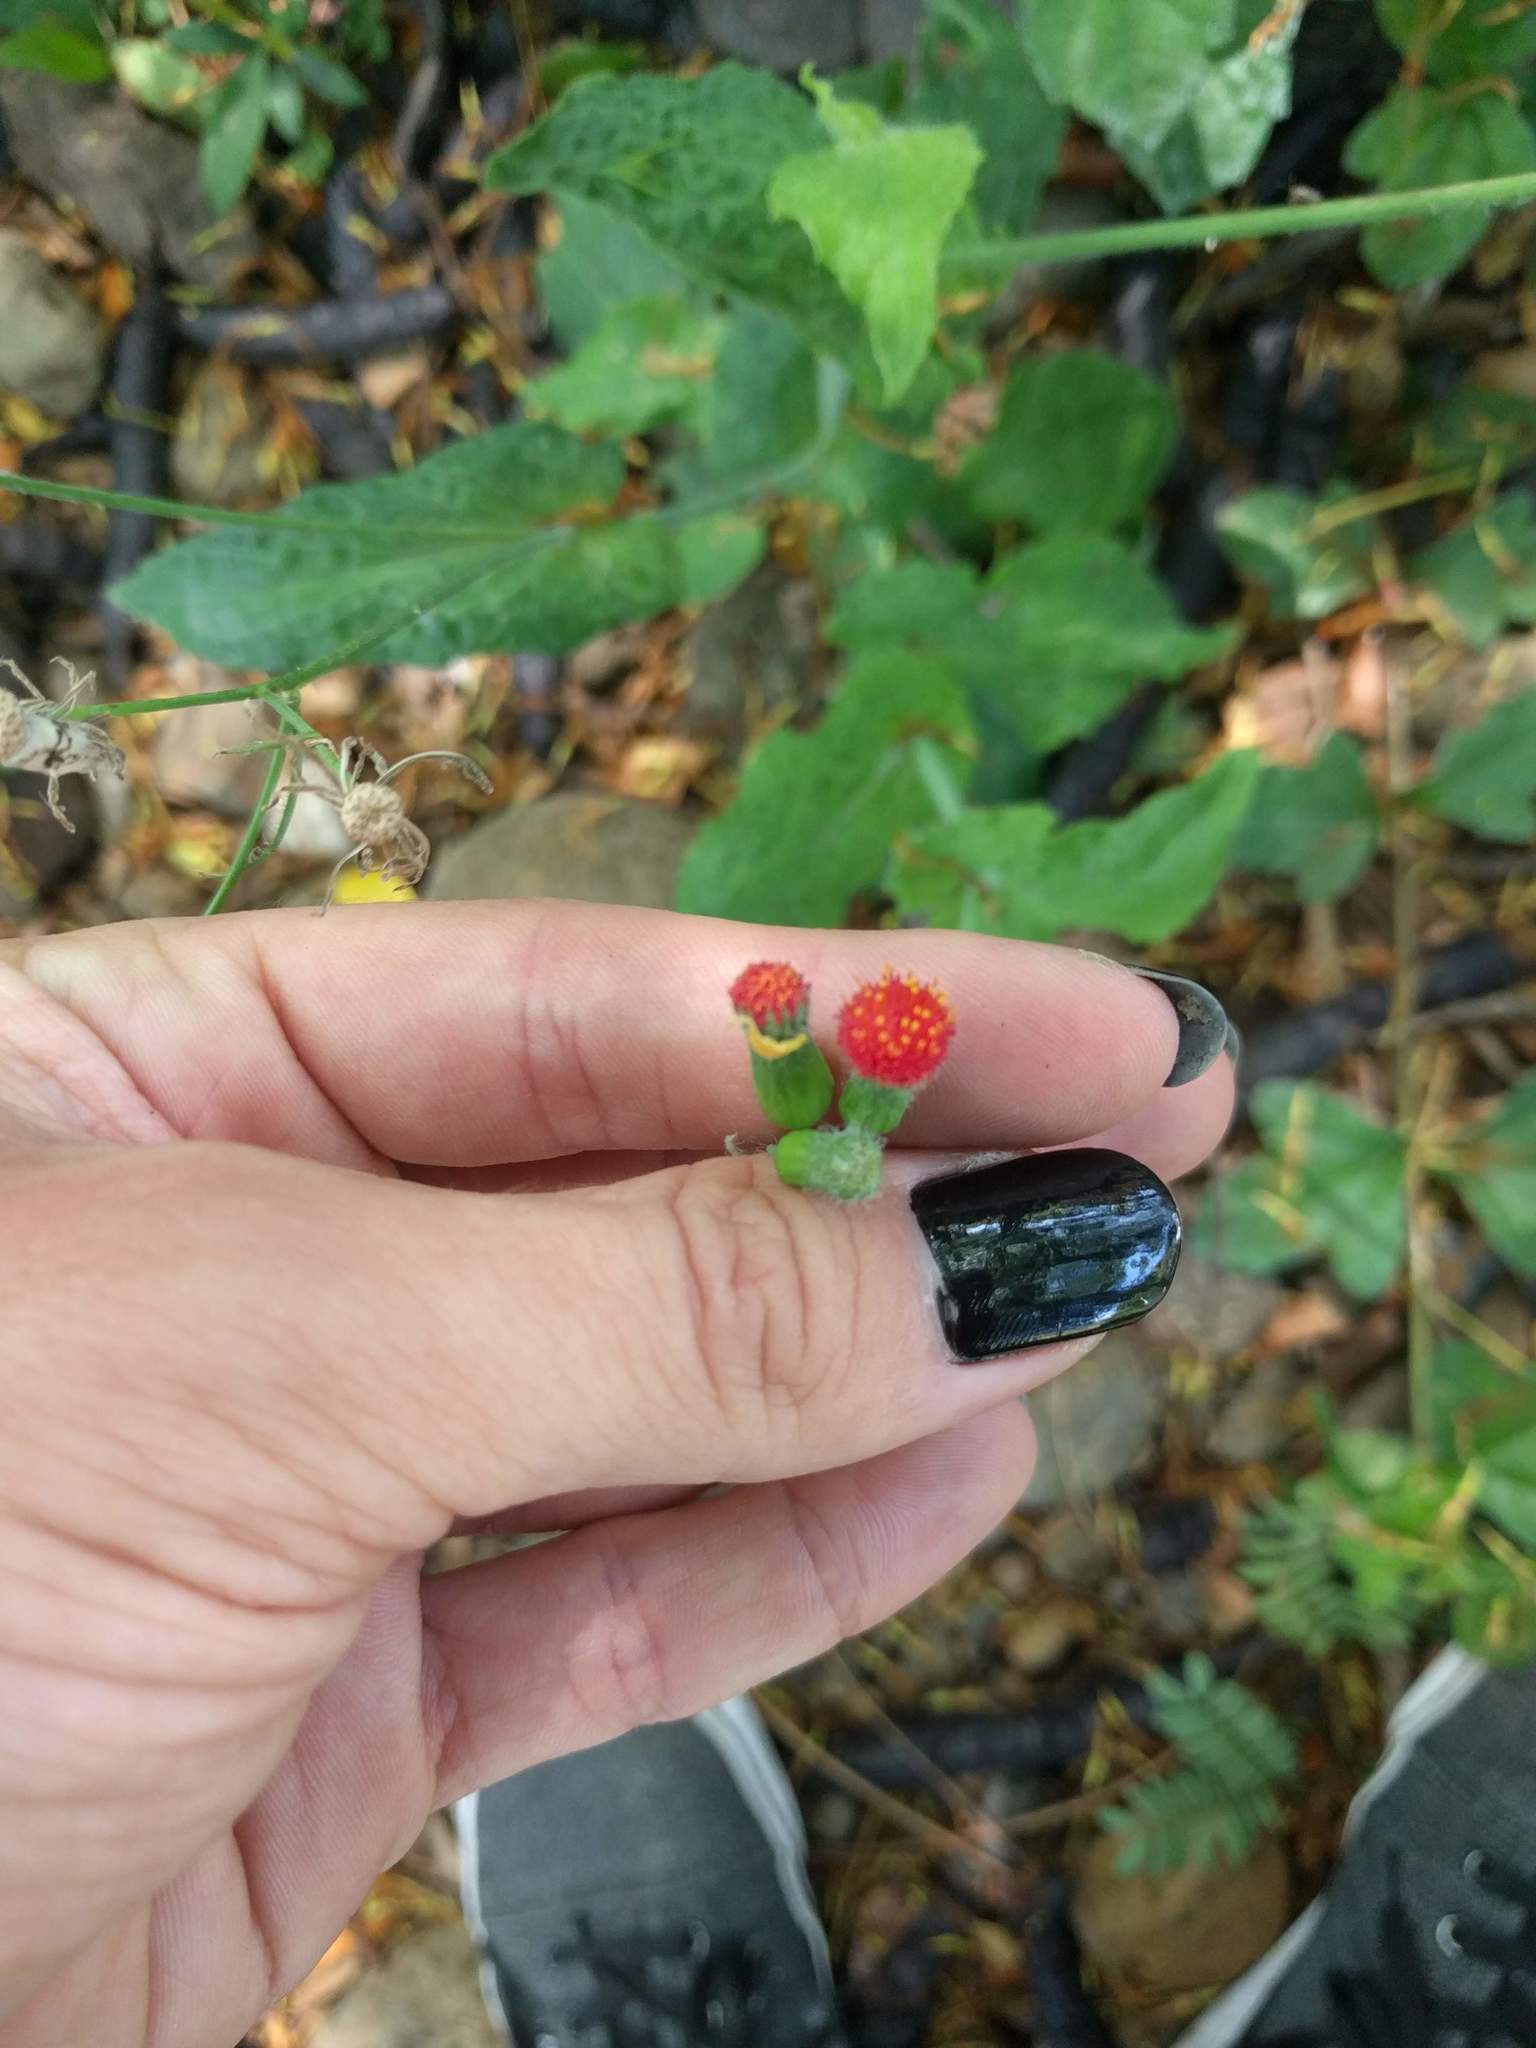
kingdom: Plantae
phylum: Tracheophyta
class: Magnoliopsida
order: Asterales
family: Asteraceae
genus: Emilia
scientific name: Emilia fosbergii
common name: Florida tasselflower
